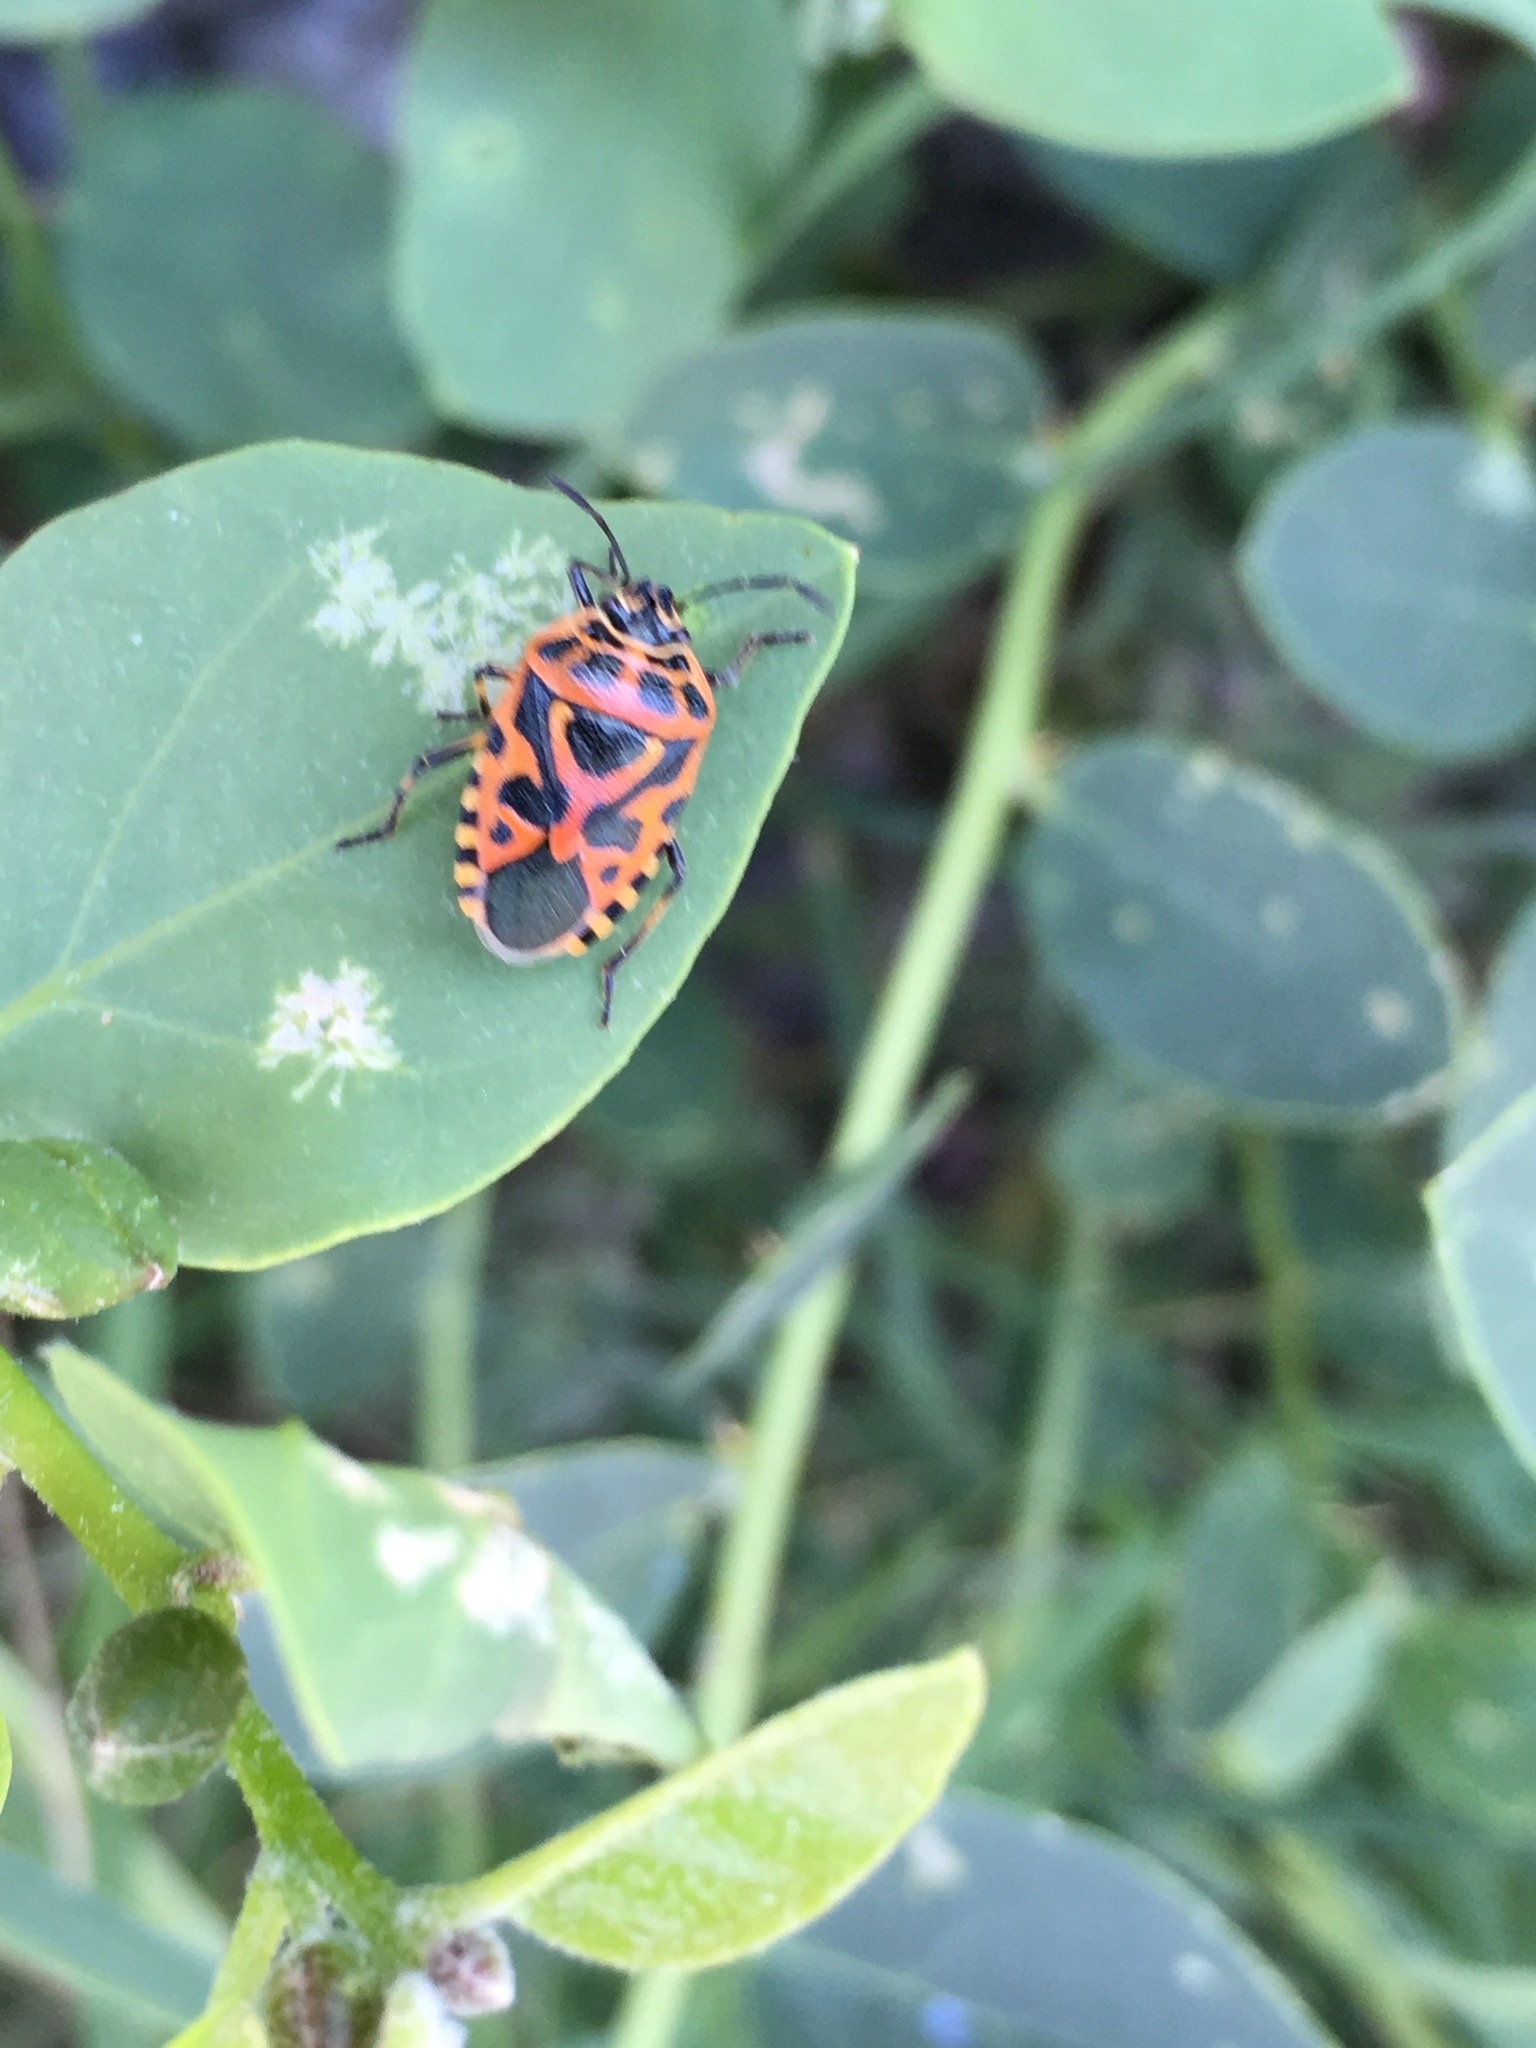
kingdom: Animalia
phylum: Arthropoda
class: Insecta
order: Hemiptera
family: Pentatomidae
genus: Eurydema
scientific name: Eurydema ventralis
